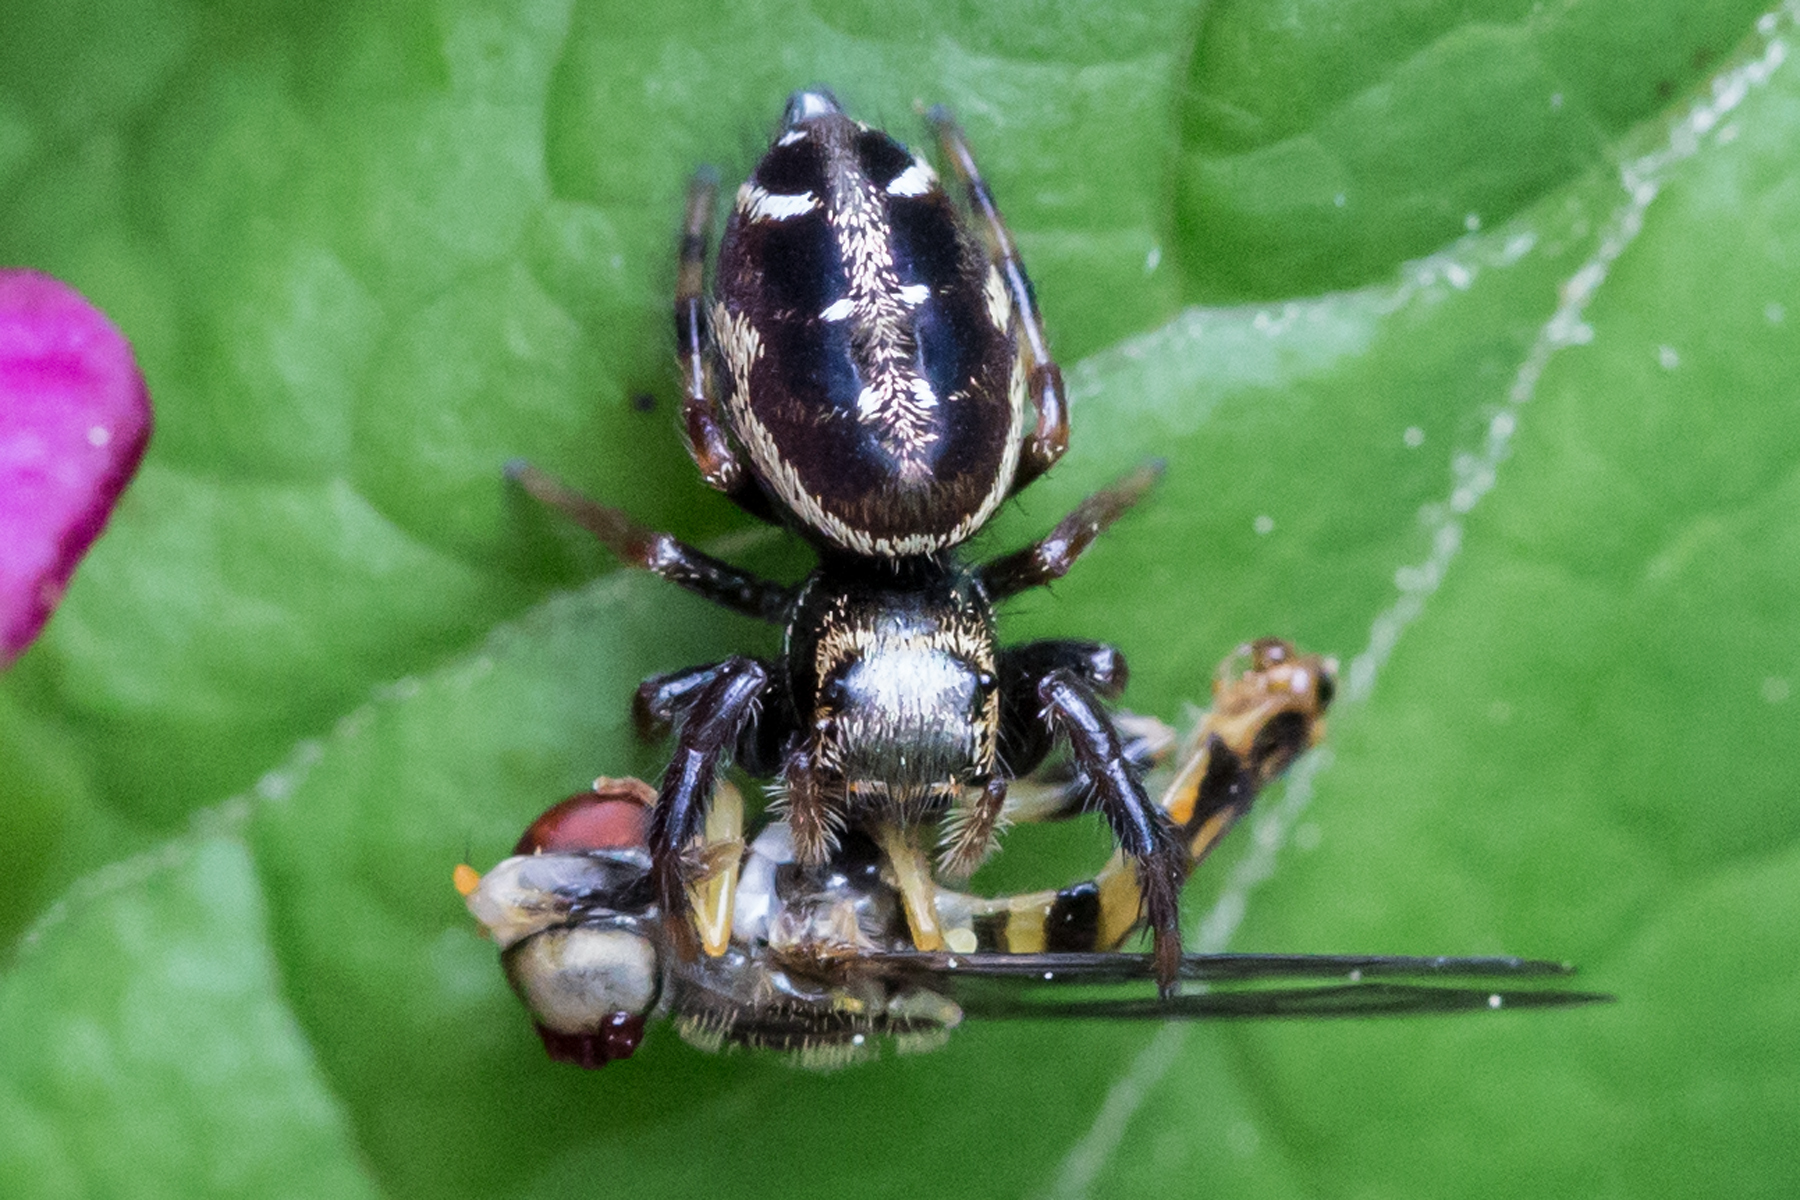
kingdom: Animalia
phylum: Arthropoda
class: Arachnida
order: Araneae
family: Salticidae
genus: Paraphidippus
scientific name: Paraphidippus aurantius
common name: Jumping spiders
